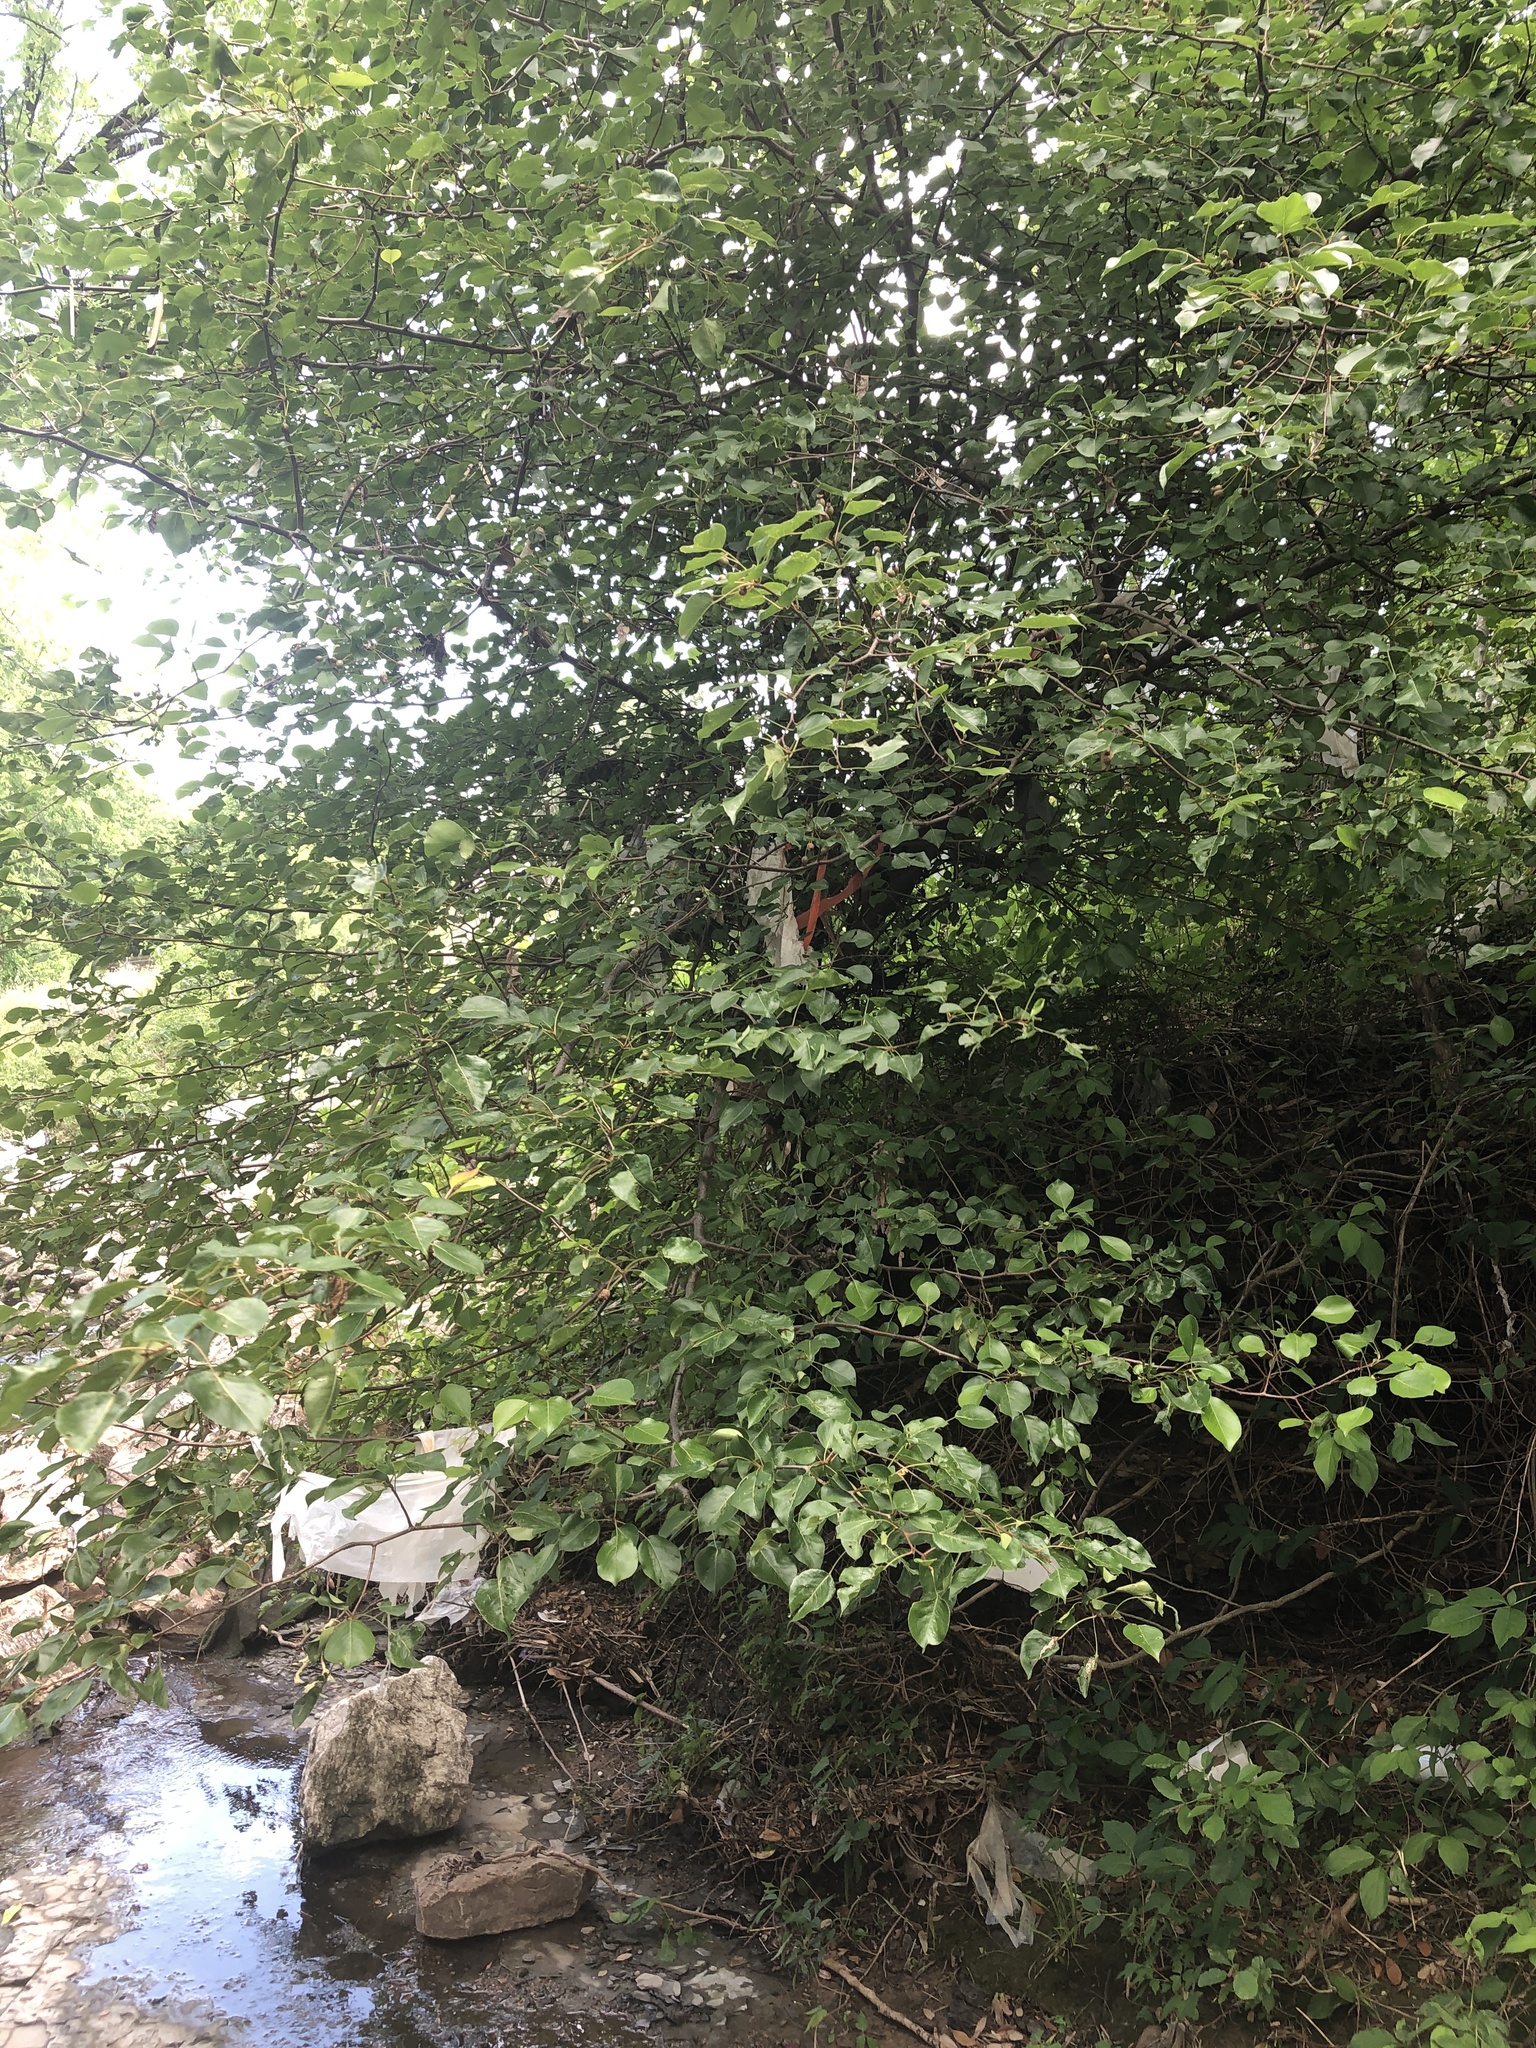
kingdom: Plantae
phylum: Tracheophyta
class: Magnoliopsida
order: Rosales
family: Rosaceae
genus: Pyrus
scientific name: Pyrus calleryana
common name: Callery pear
